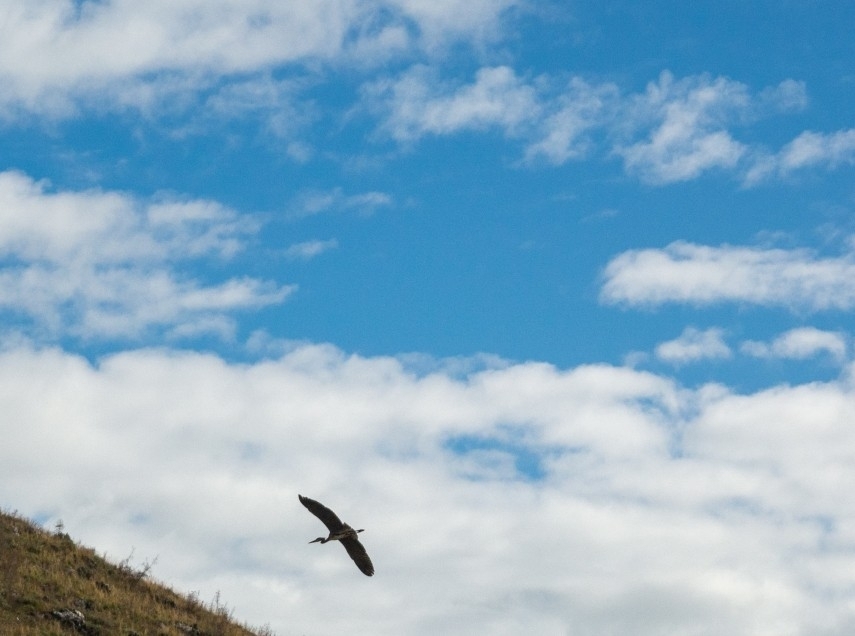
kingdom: Animalia
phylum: Chordata
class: Aves
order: Pelecaniformes
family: Ardeidae
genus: Ardea
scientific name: Ardea cinerea
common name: Grey heron
